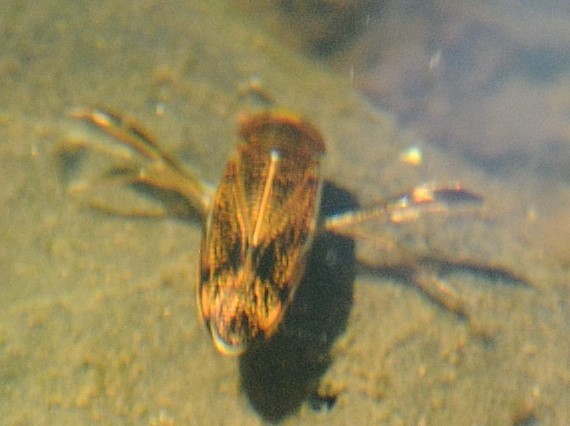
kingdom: Animalia
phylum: Arthropoda
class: Insecta
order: Hemiptera
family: Corixidae
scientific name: Corixidae
